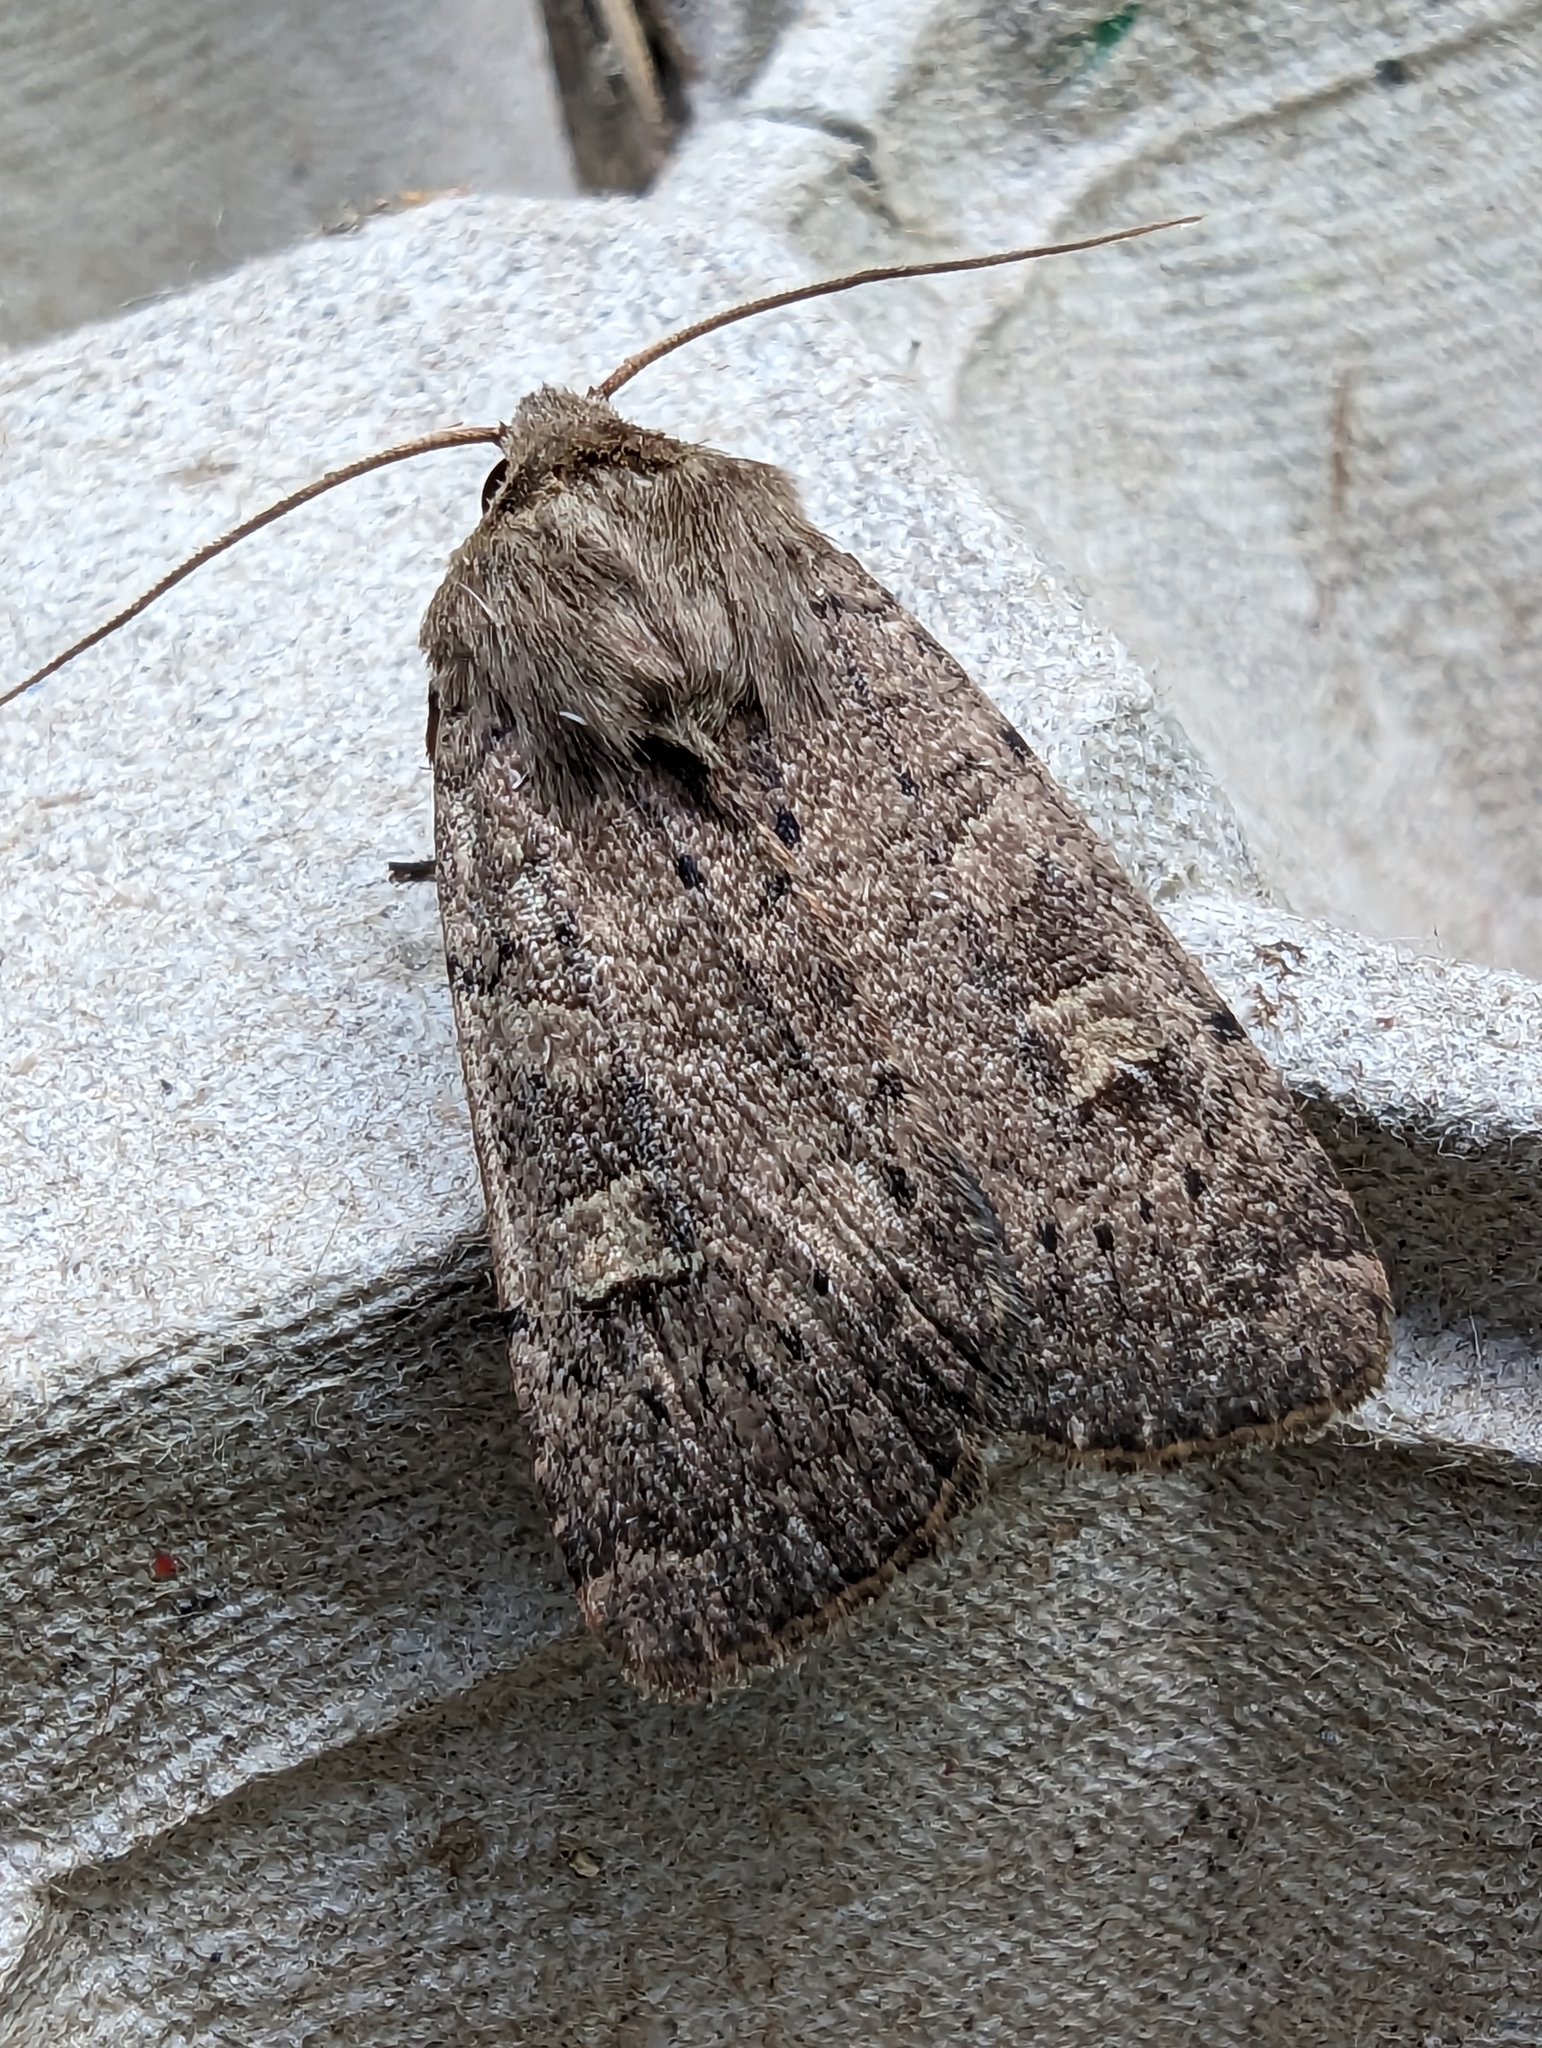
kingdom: Animalia
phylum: Arthropoda
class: Insecta
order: Lepidoptera
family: Noctuidae
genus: Xestia
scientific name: Xestia xanthographa
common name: Square-spot rustic
